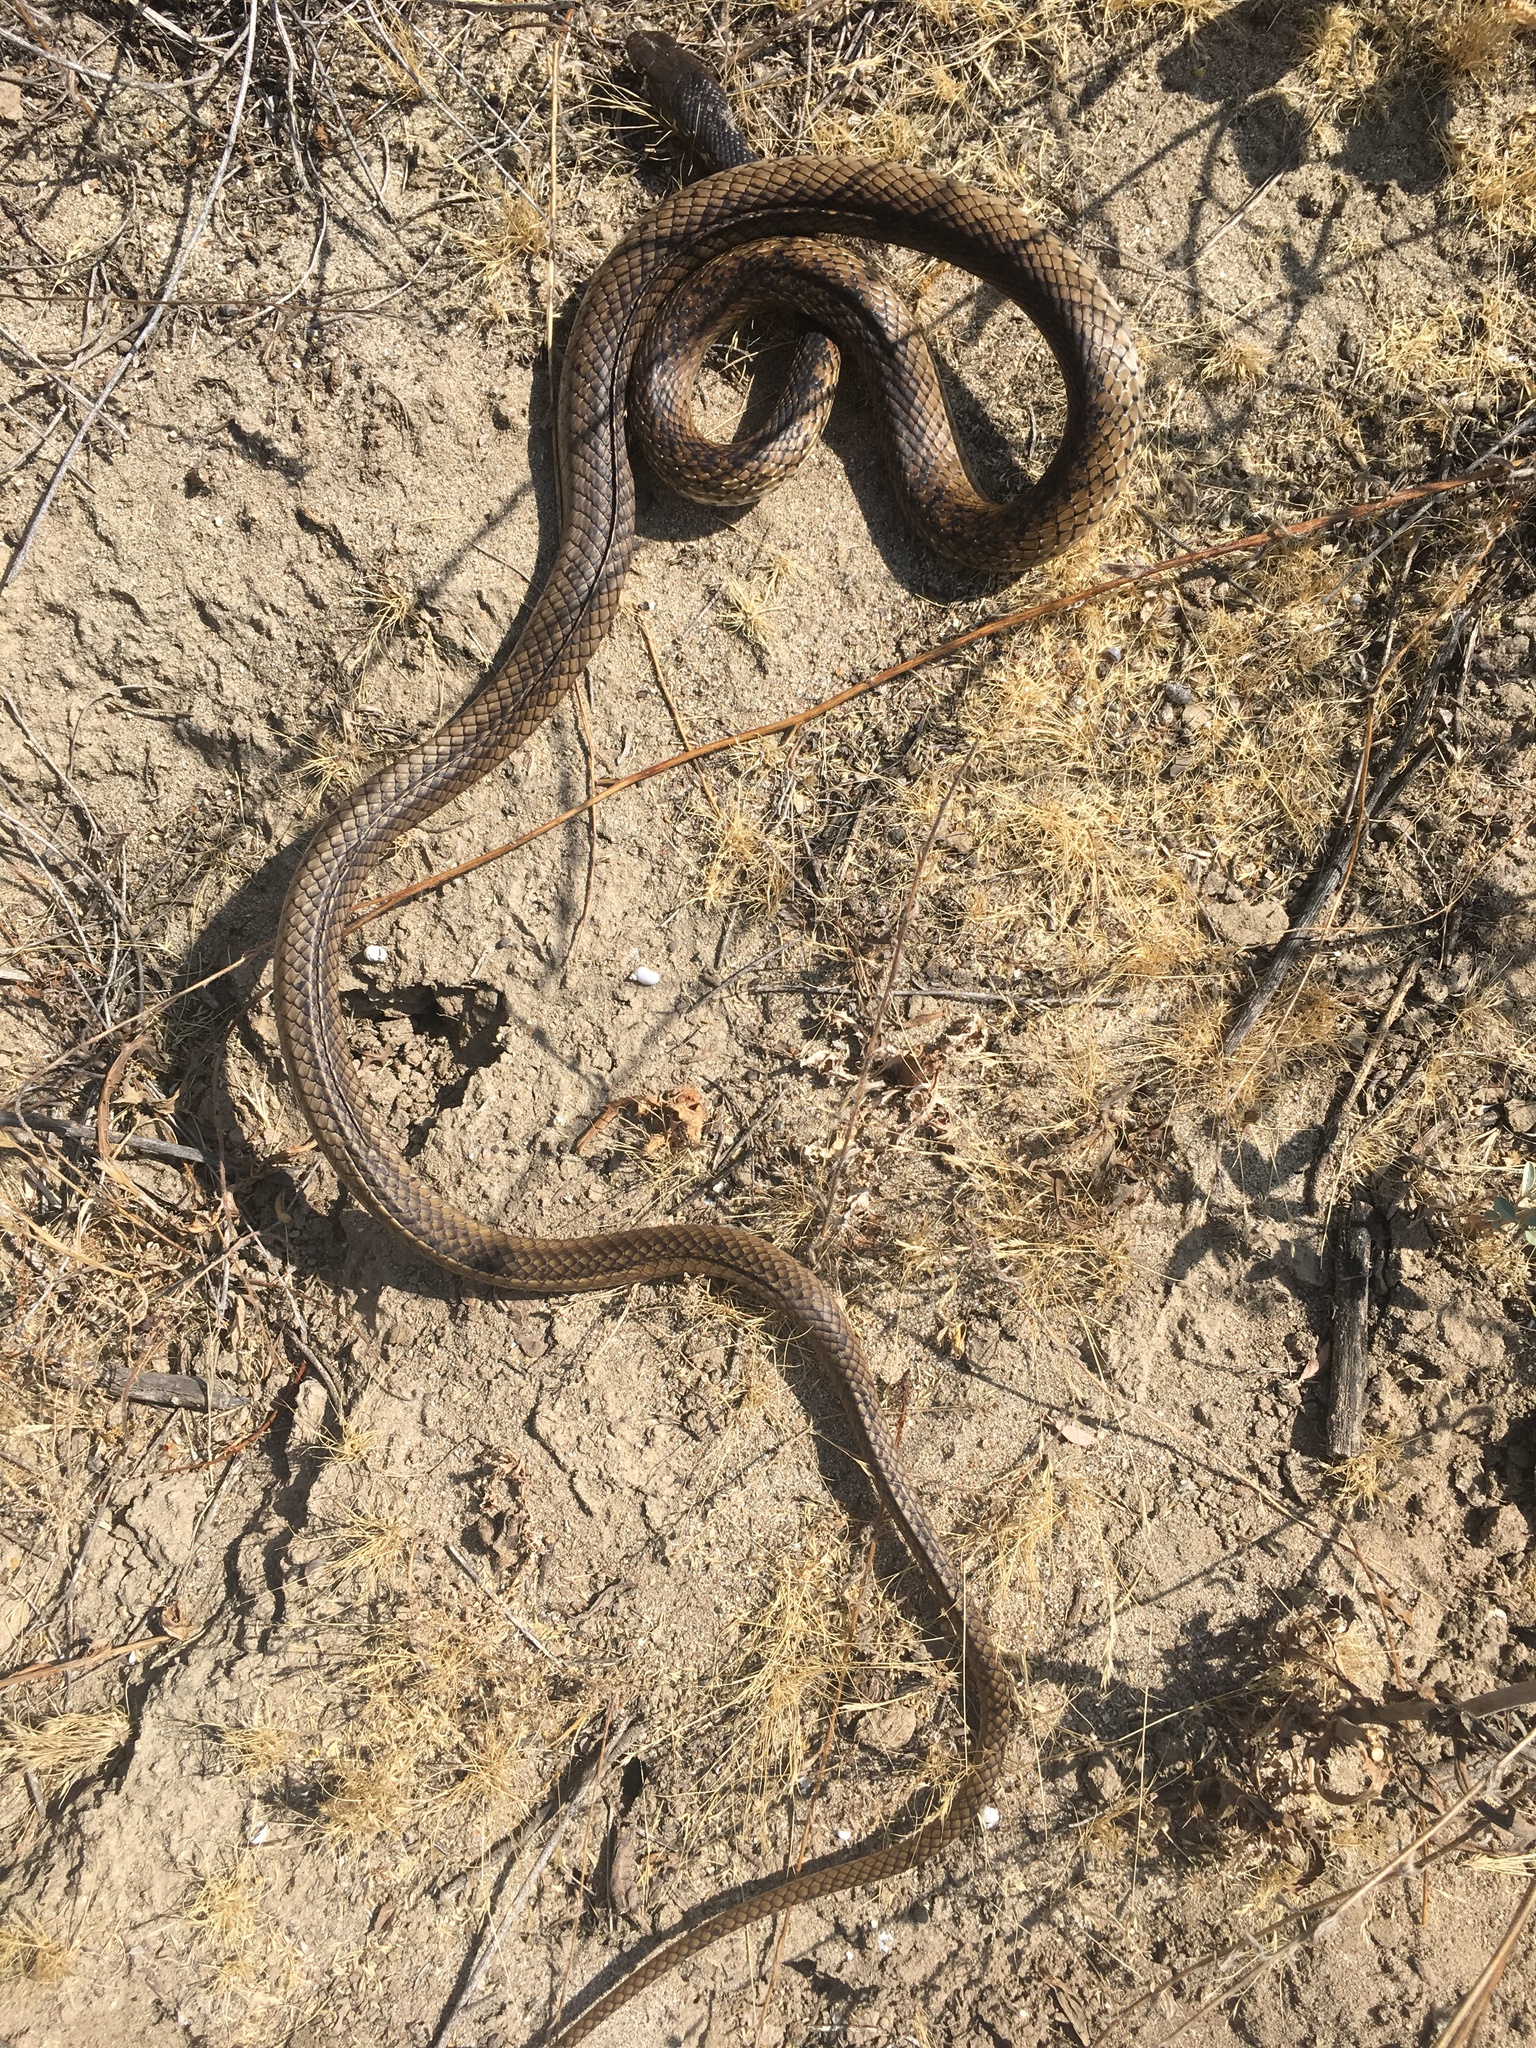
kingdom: Animalia
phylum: Chordata
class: Squamata
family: Colubridae
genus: Masticophis
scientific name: Masticophis fuliginosus
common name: Baja california coachwhip
